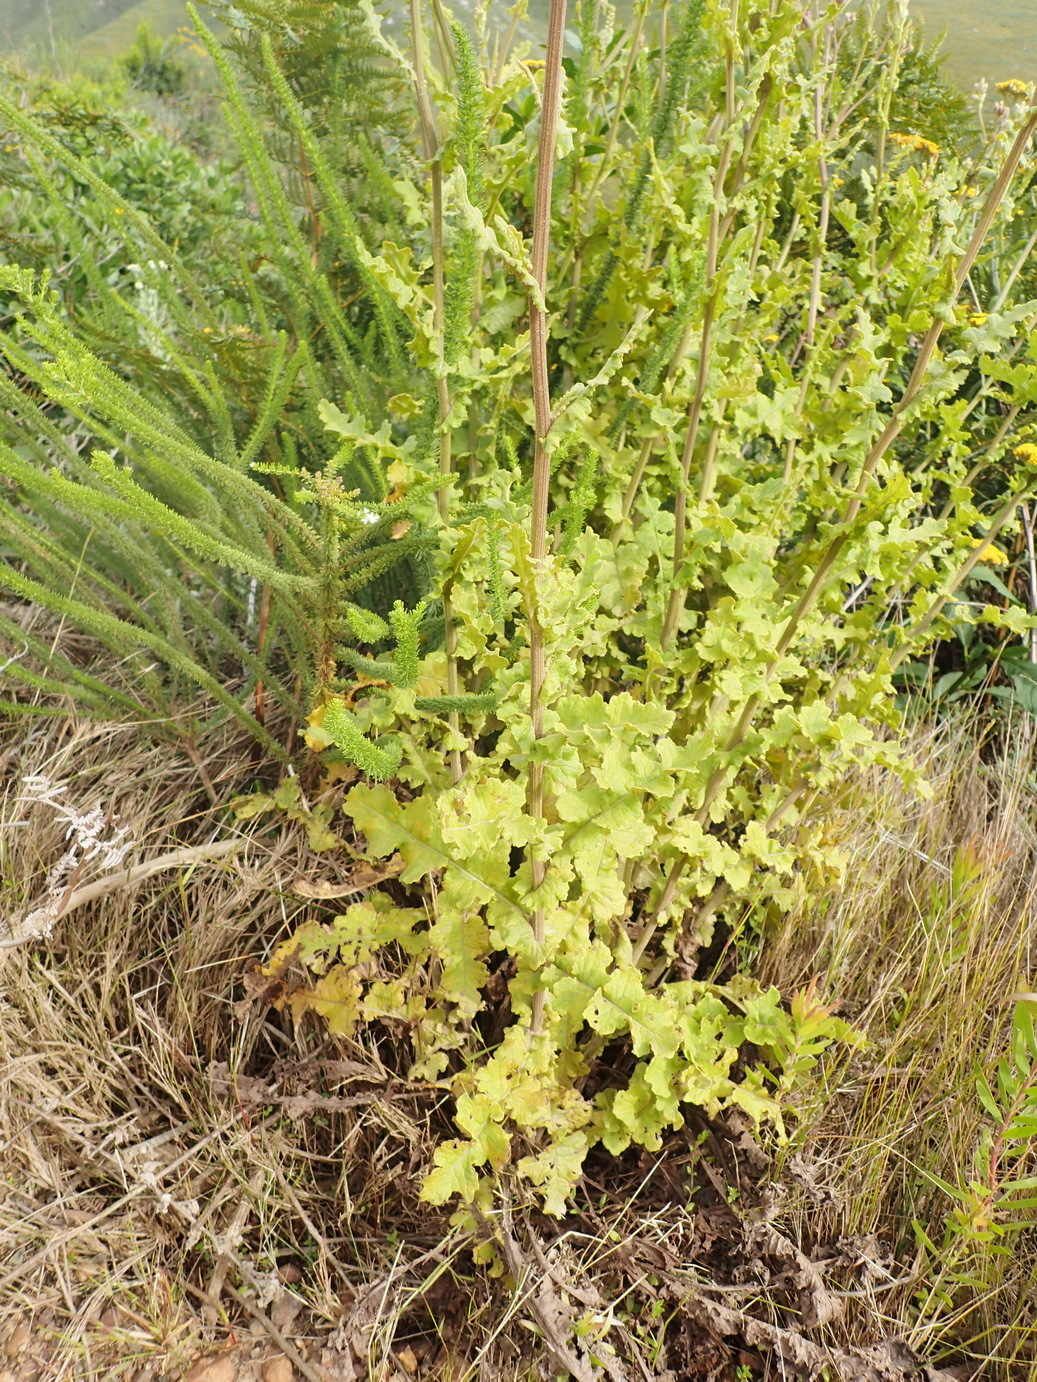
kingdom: Plantae
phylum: Tracheophyta
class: Magnoliopsida
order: Asterales
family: Asteraceae
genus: Senecio
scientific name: Senecio purpureus
